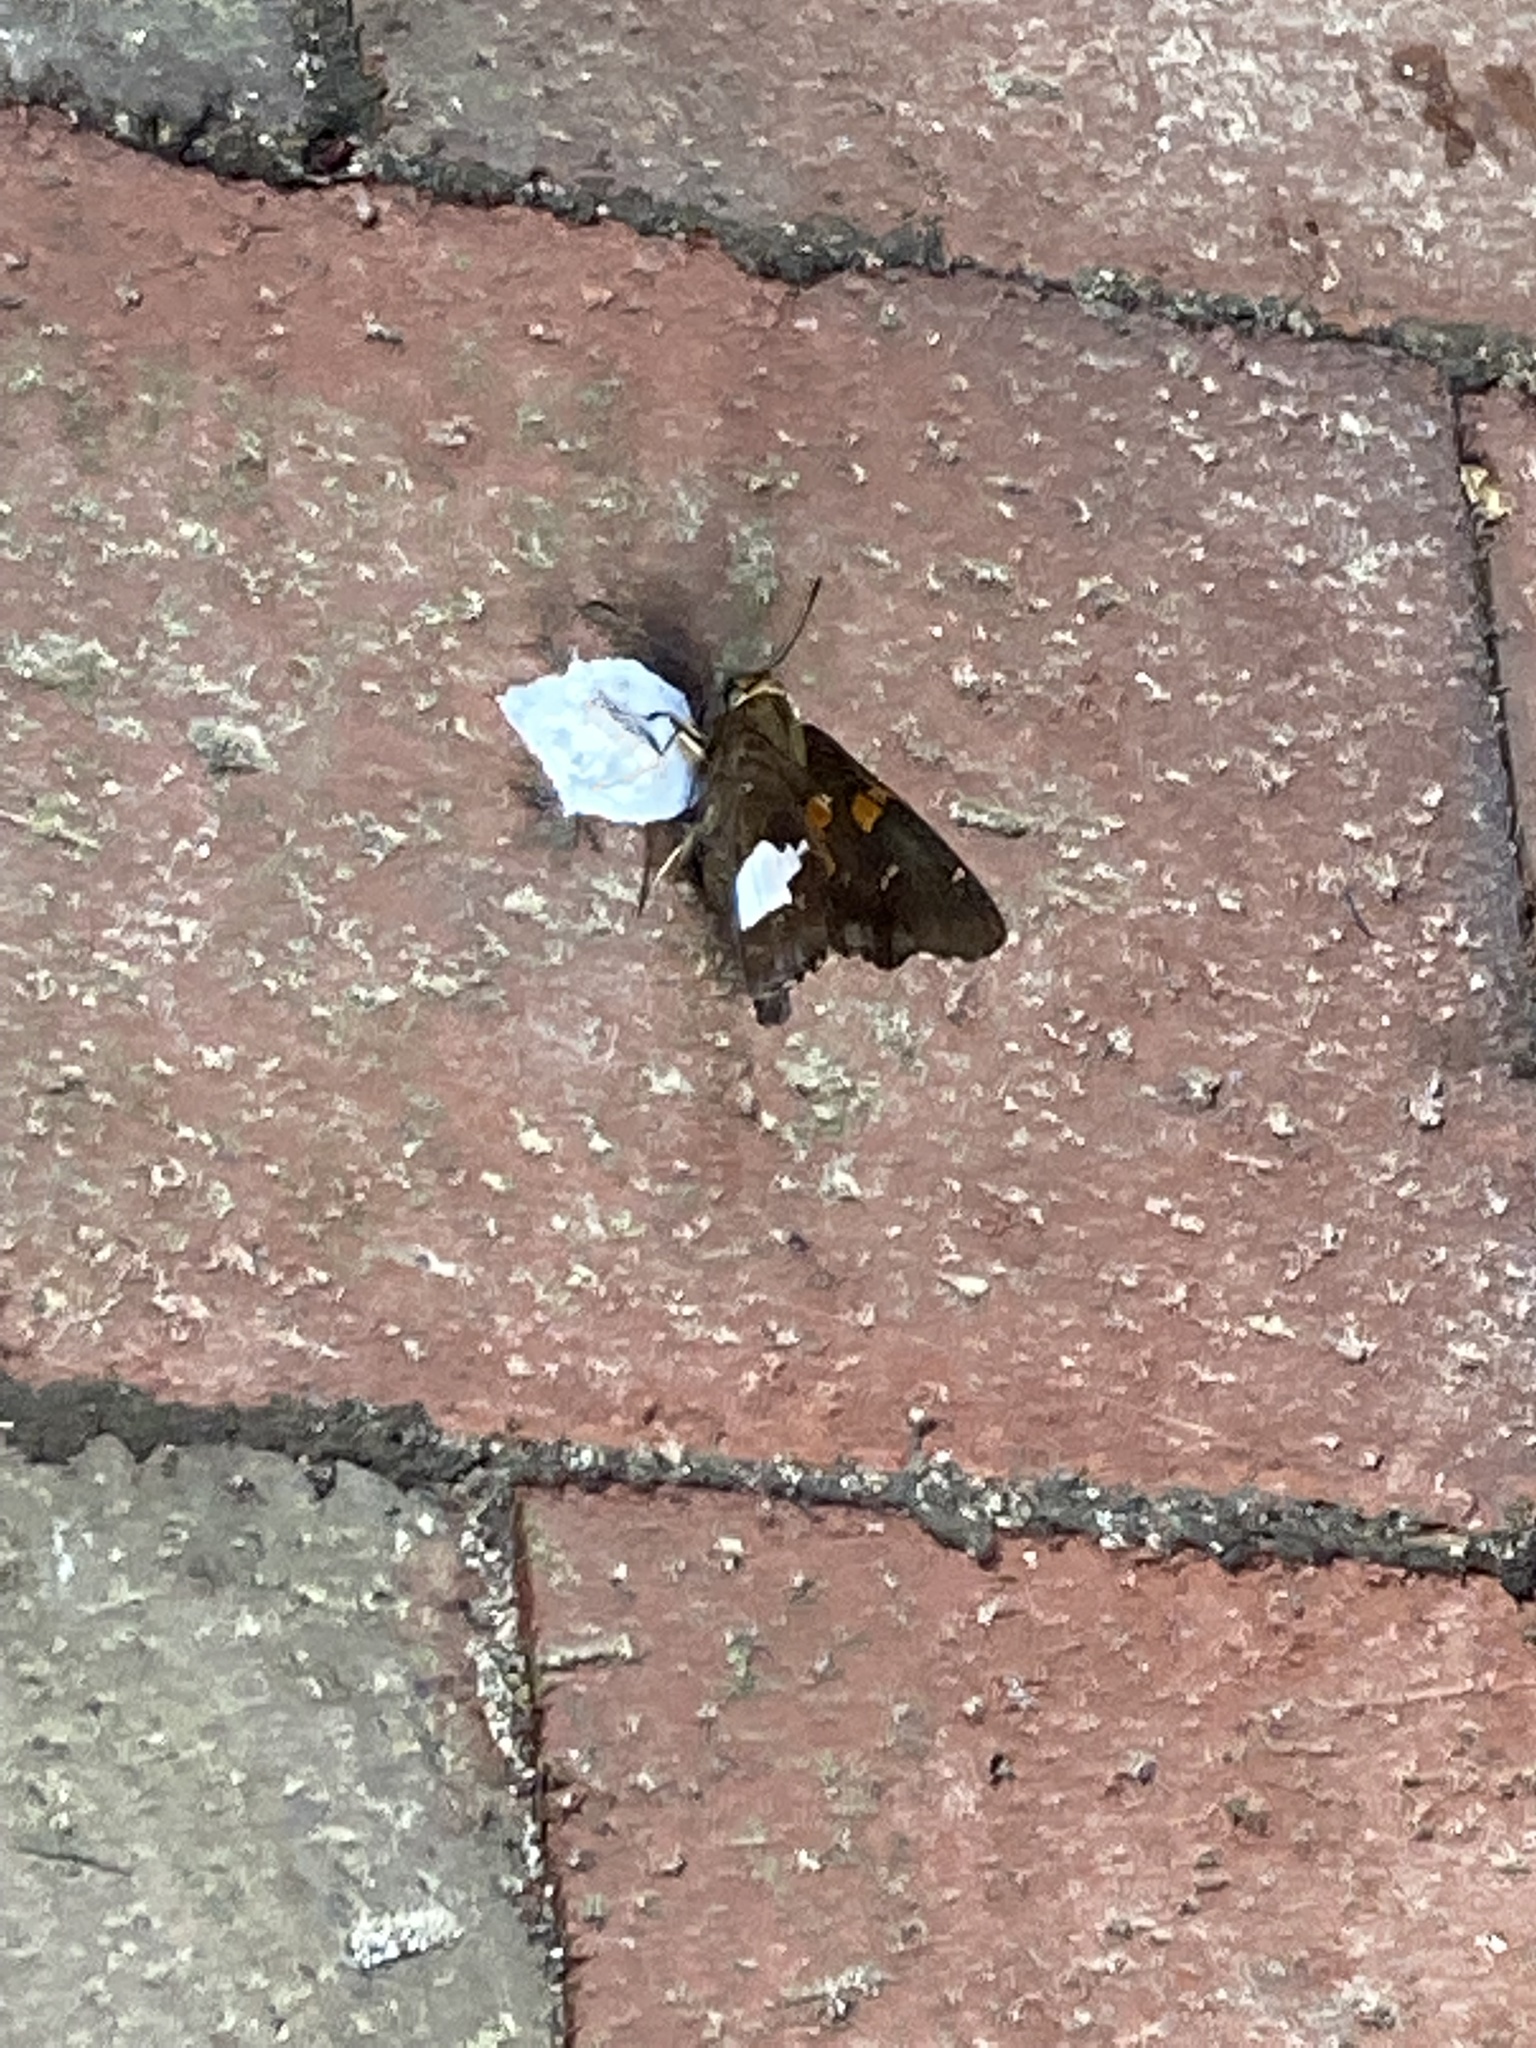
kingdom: Animalia
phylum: Arthropoda
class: Insecta
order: Lepidoptera
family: Hesperiidae
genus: Epargyreus
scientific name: Epargyreus clarus
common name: Silver-spotted skipper
